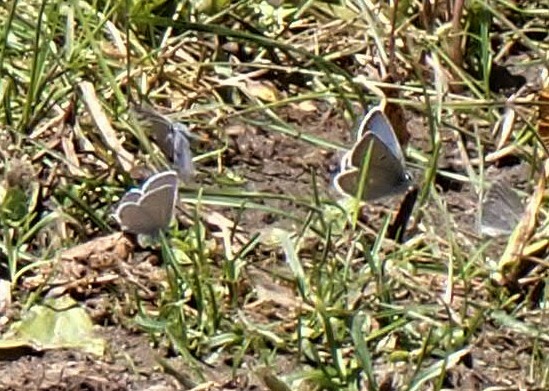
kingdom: Animalia
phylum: Arthropoda
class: Insecta
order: Lepidoptera
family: Lycaenidae
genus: Icaricia
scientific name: Icaricia icarioides
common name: Boisduval's blue
